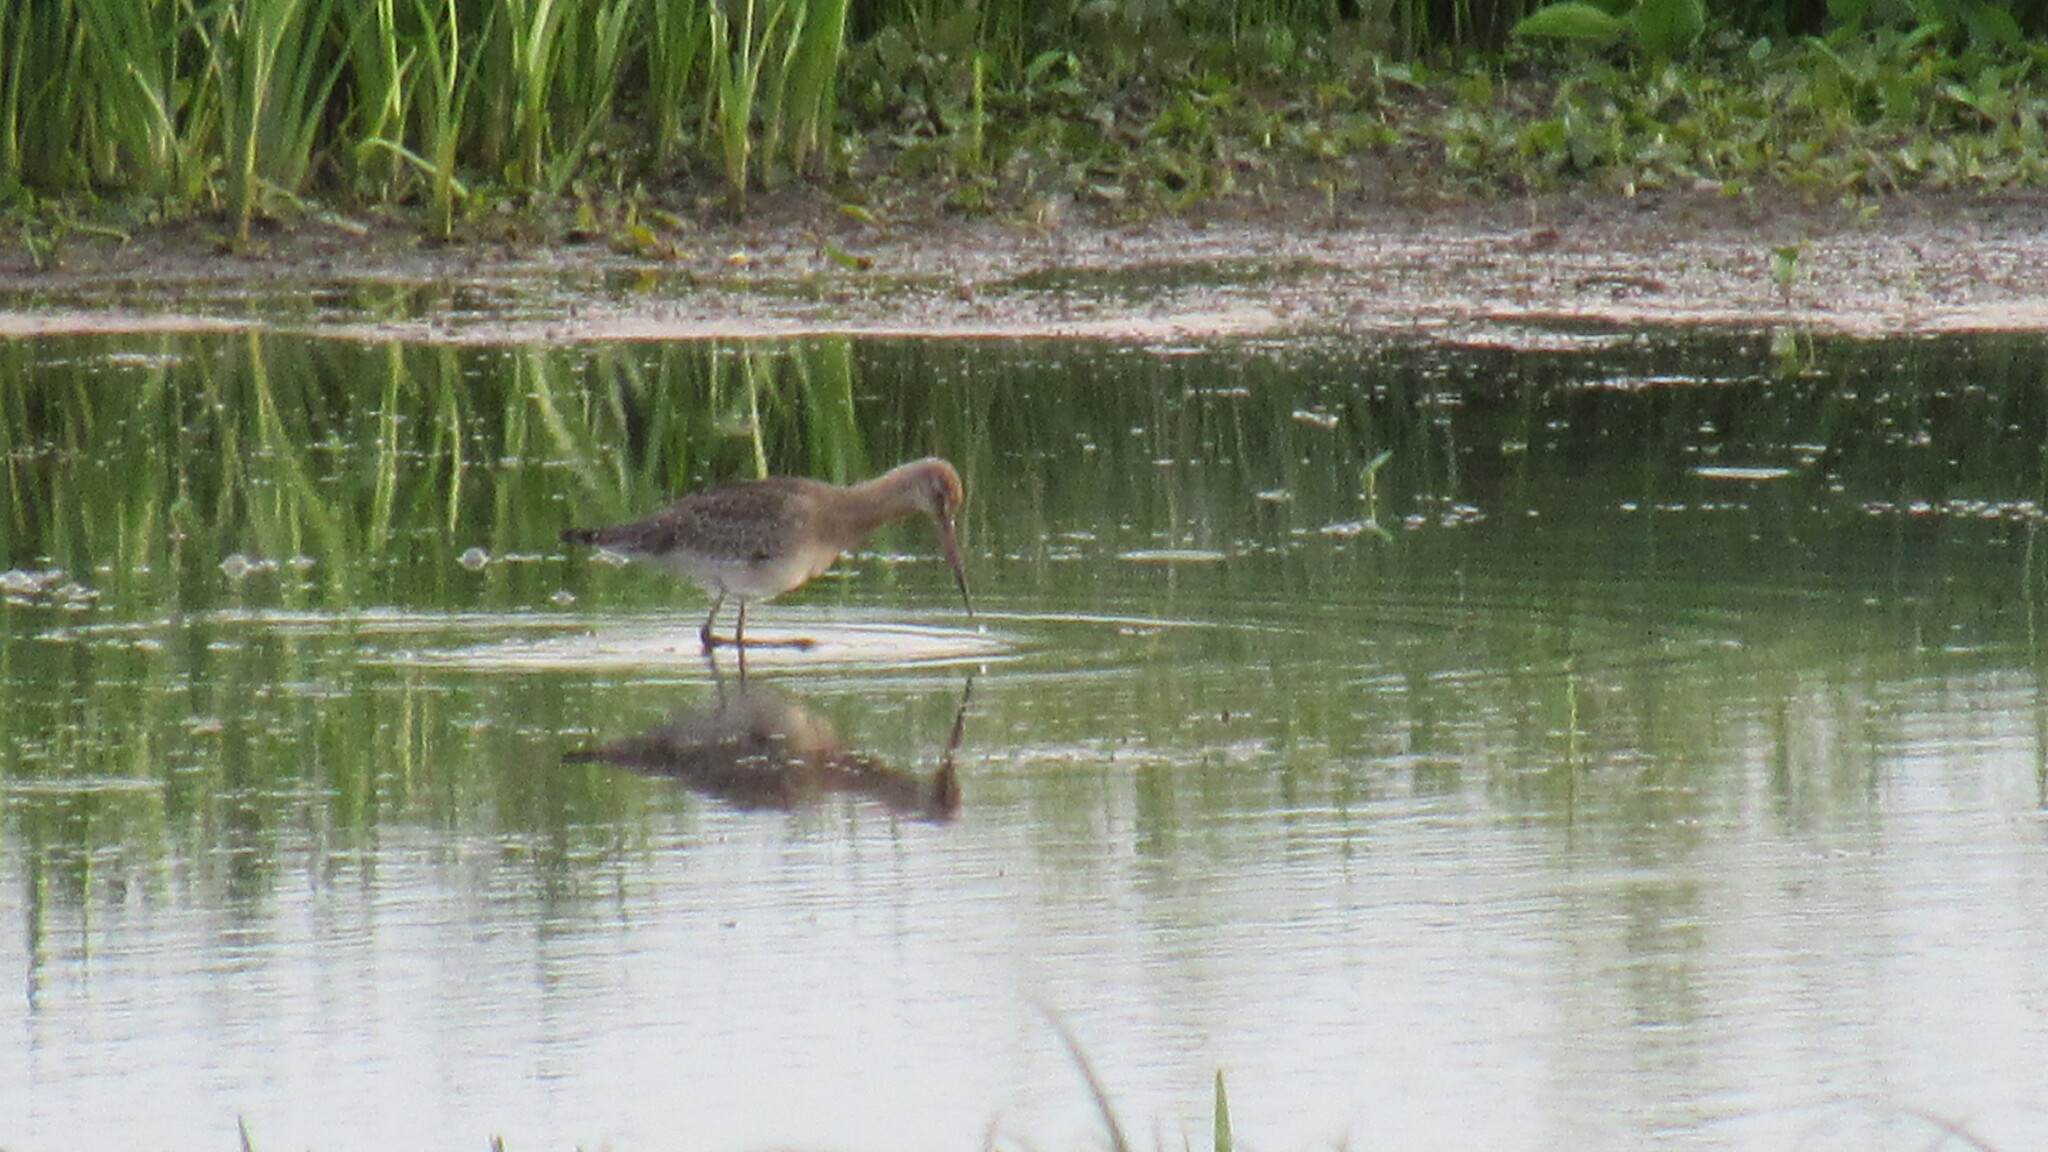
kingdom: Animalia
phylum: Chordata
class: Aves
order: Charadriiformes
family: Scolopacidae
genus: Limosa
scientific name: Limosa limosa
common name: Black-tailed godwit
